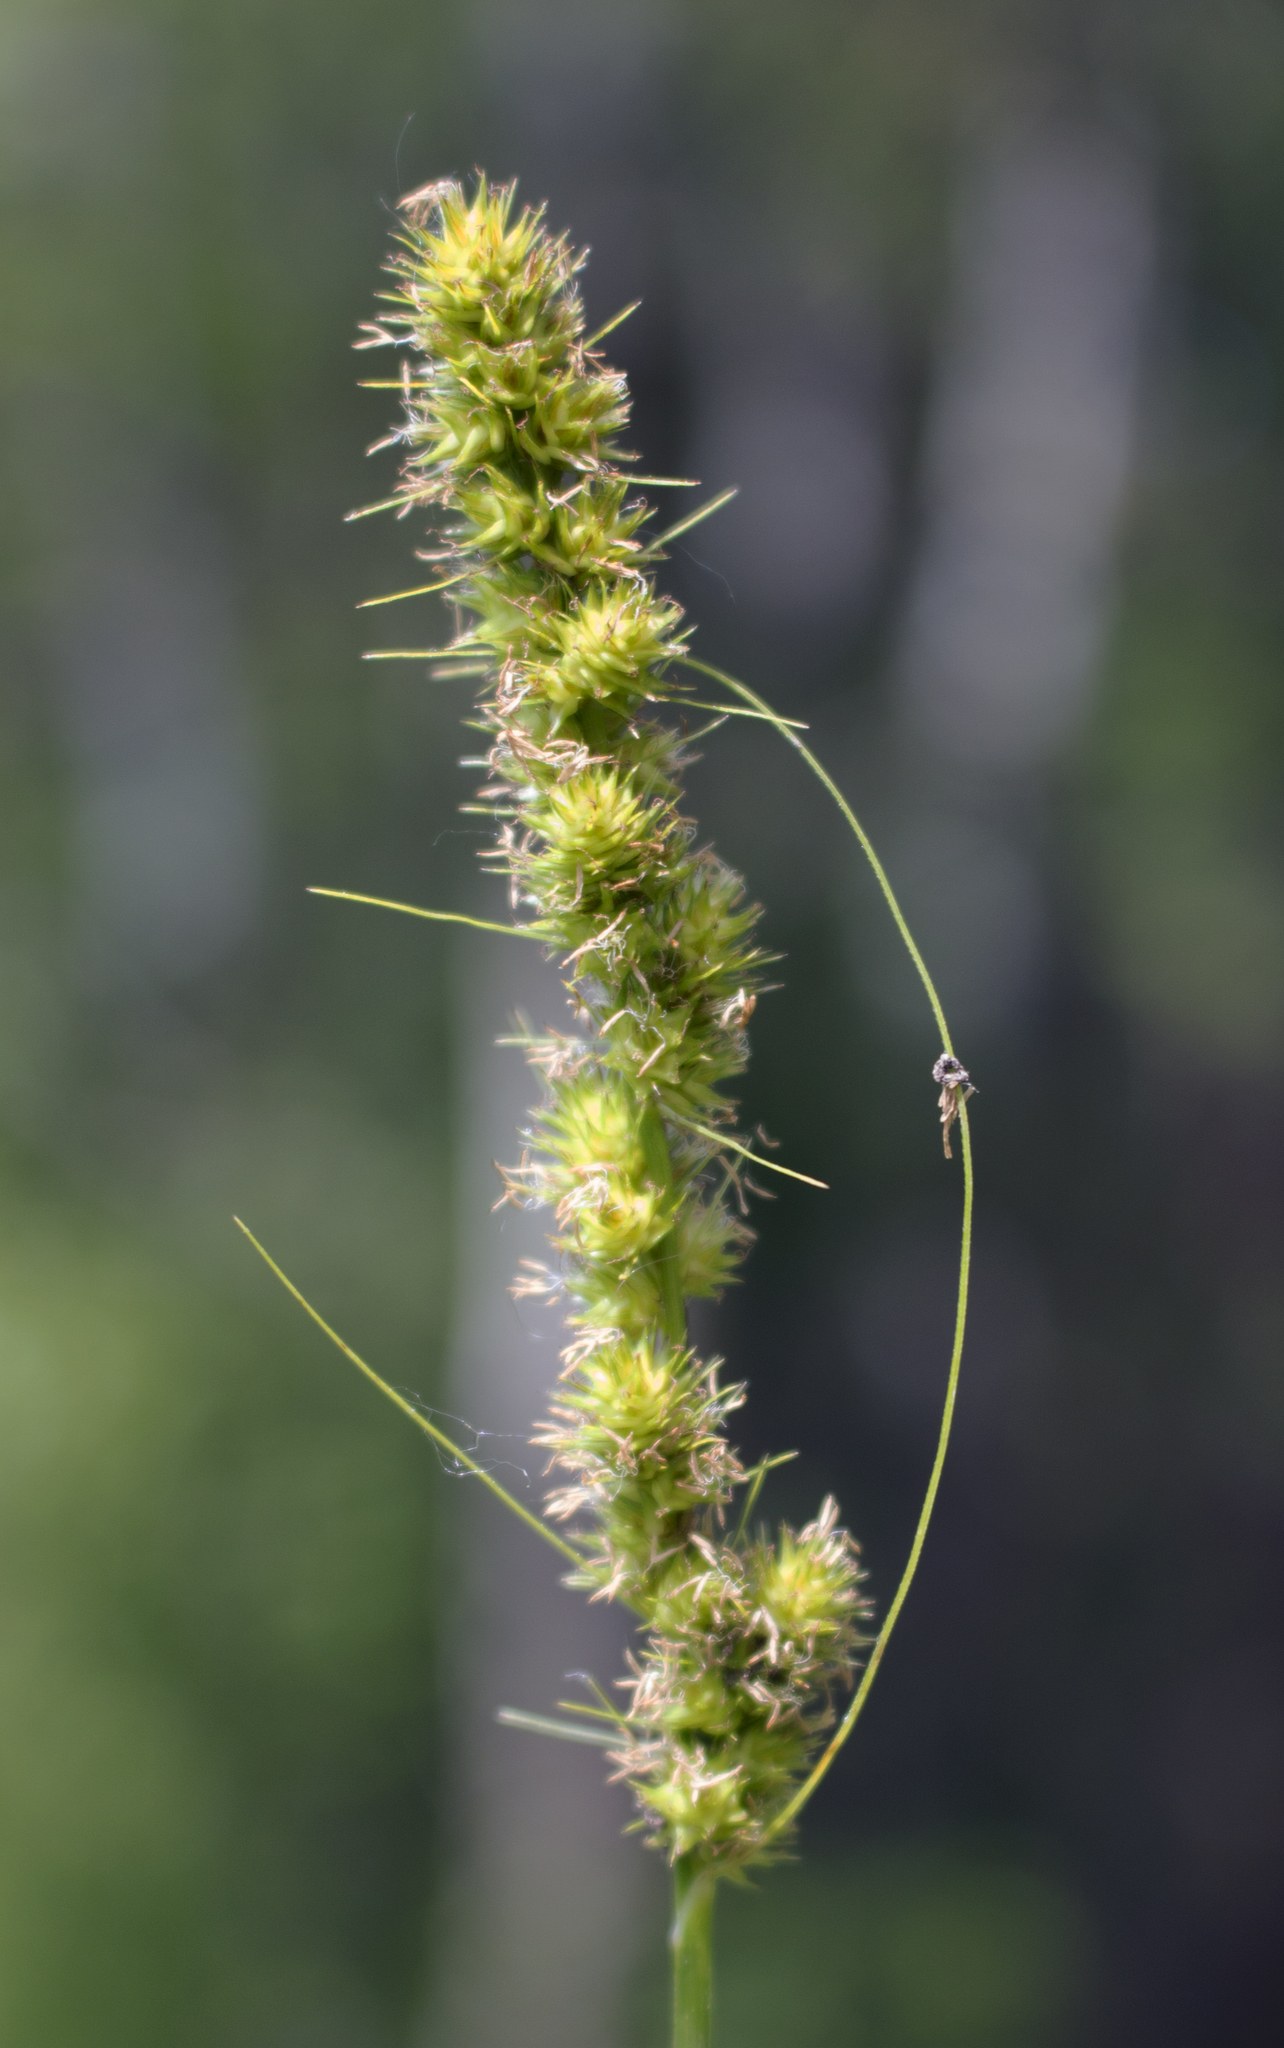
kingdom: Plantae
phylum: Tracheophyta
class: Liliopsida
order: Poales
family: Cyperaceae
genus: Carex
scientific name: Carex vulpinoidea
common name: American fox-sedge
